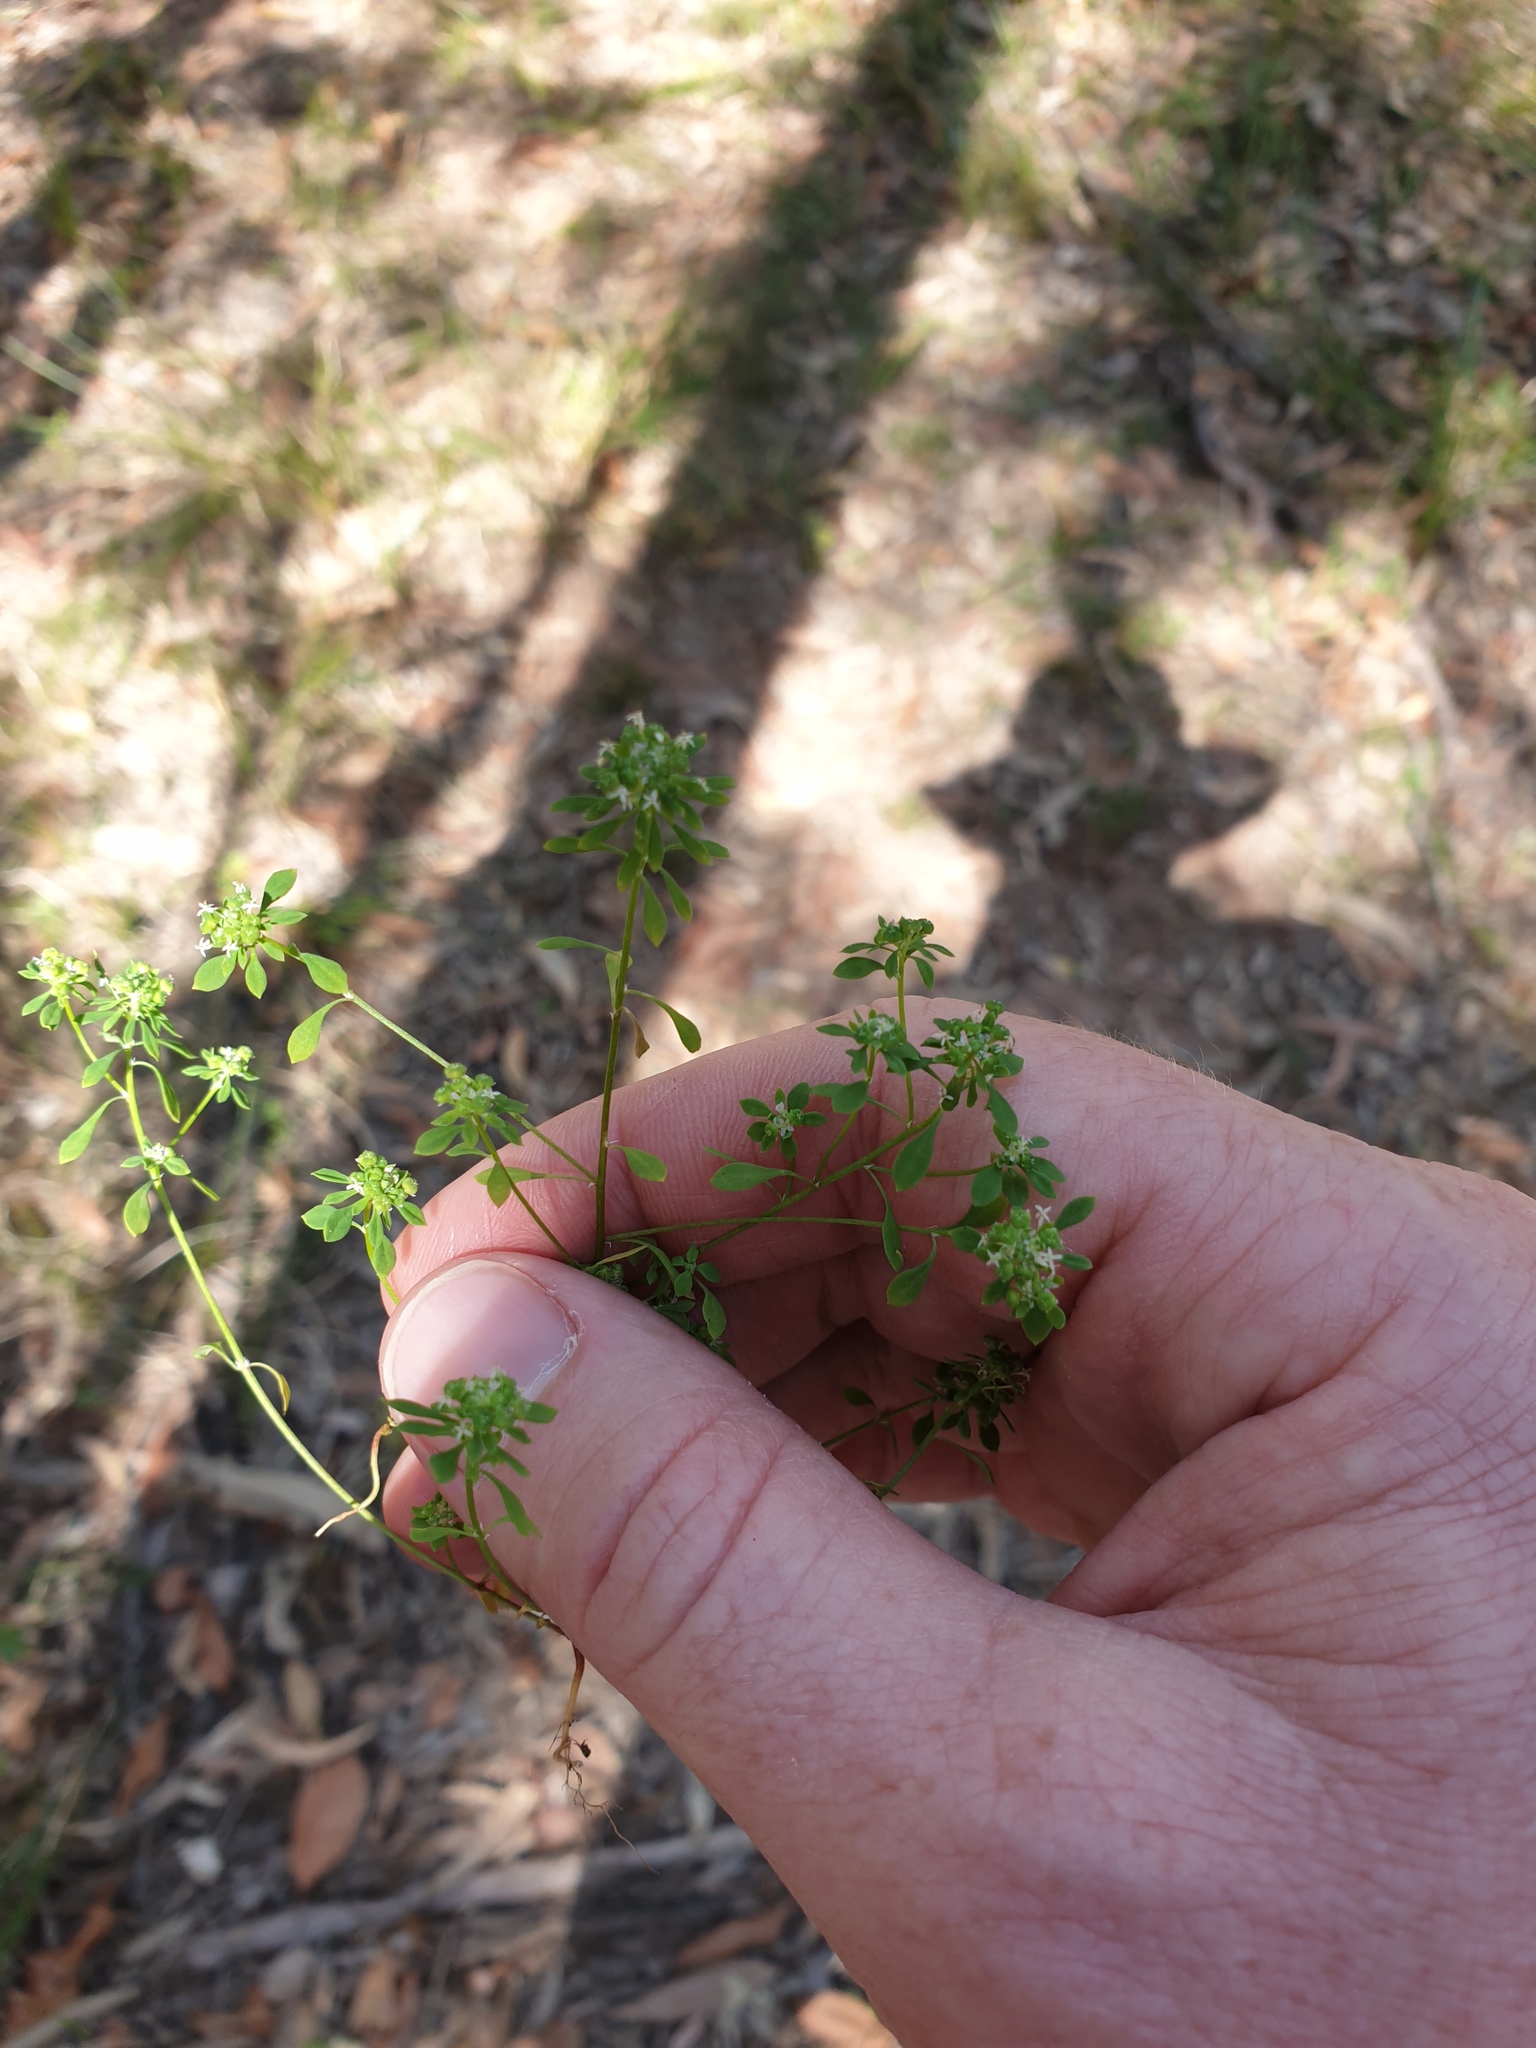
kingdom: Plantae
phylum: Tracheophyta
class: Magnoliopsida
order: Malpighiales
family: Phyllanthaceae
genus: Poranthera
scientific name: Poranthera microphylla
